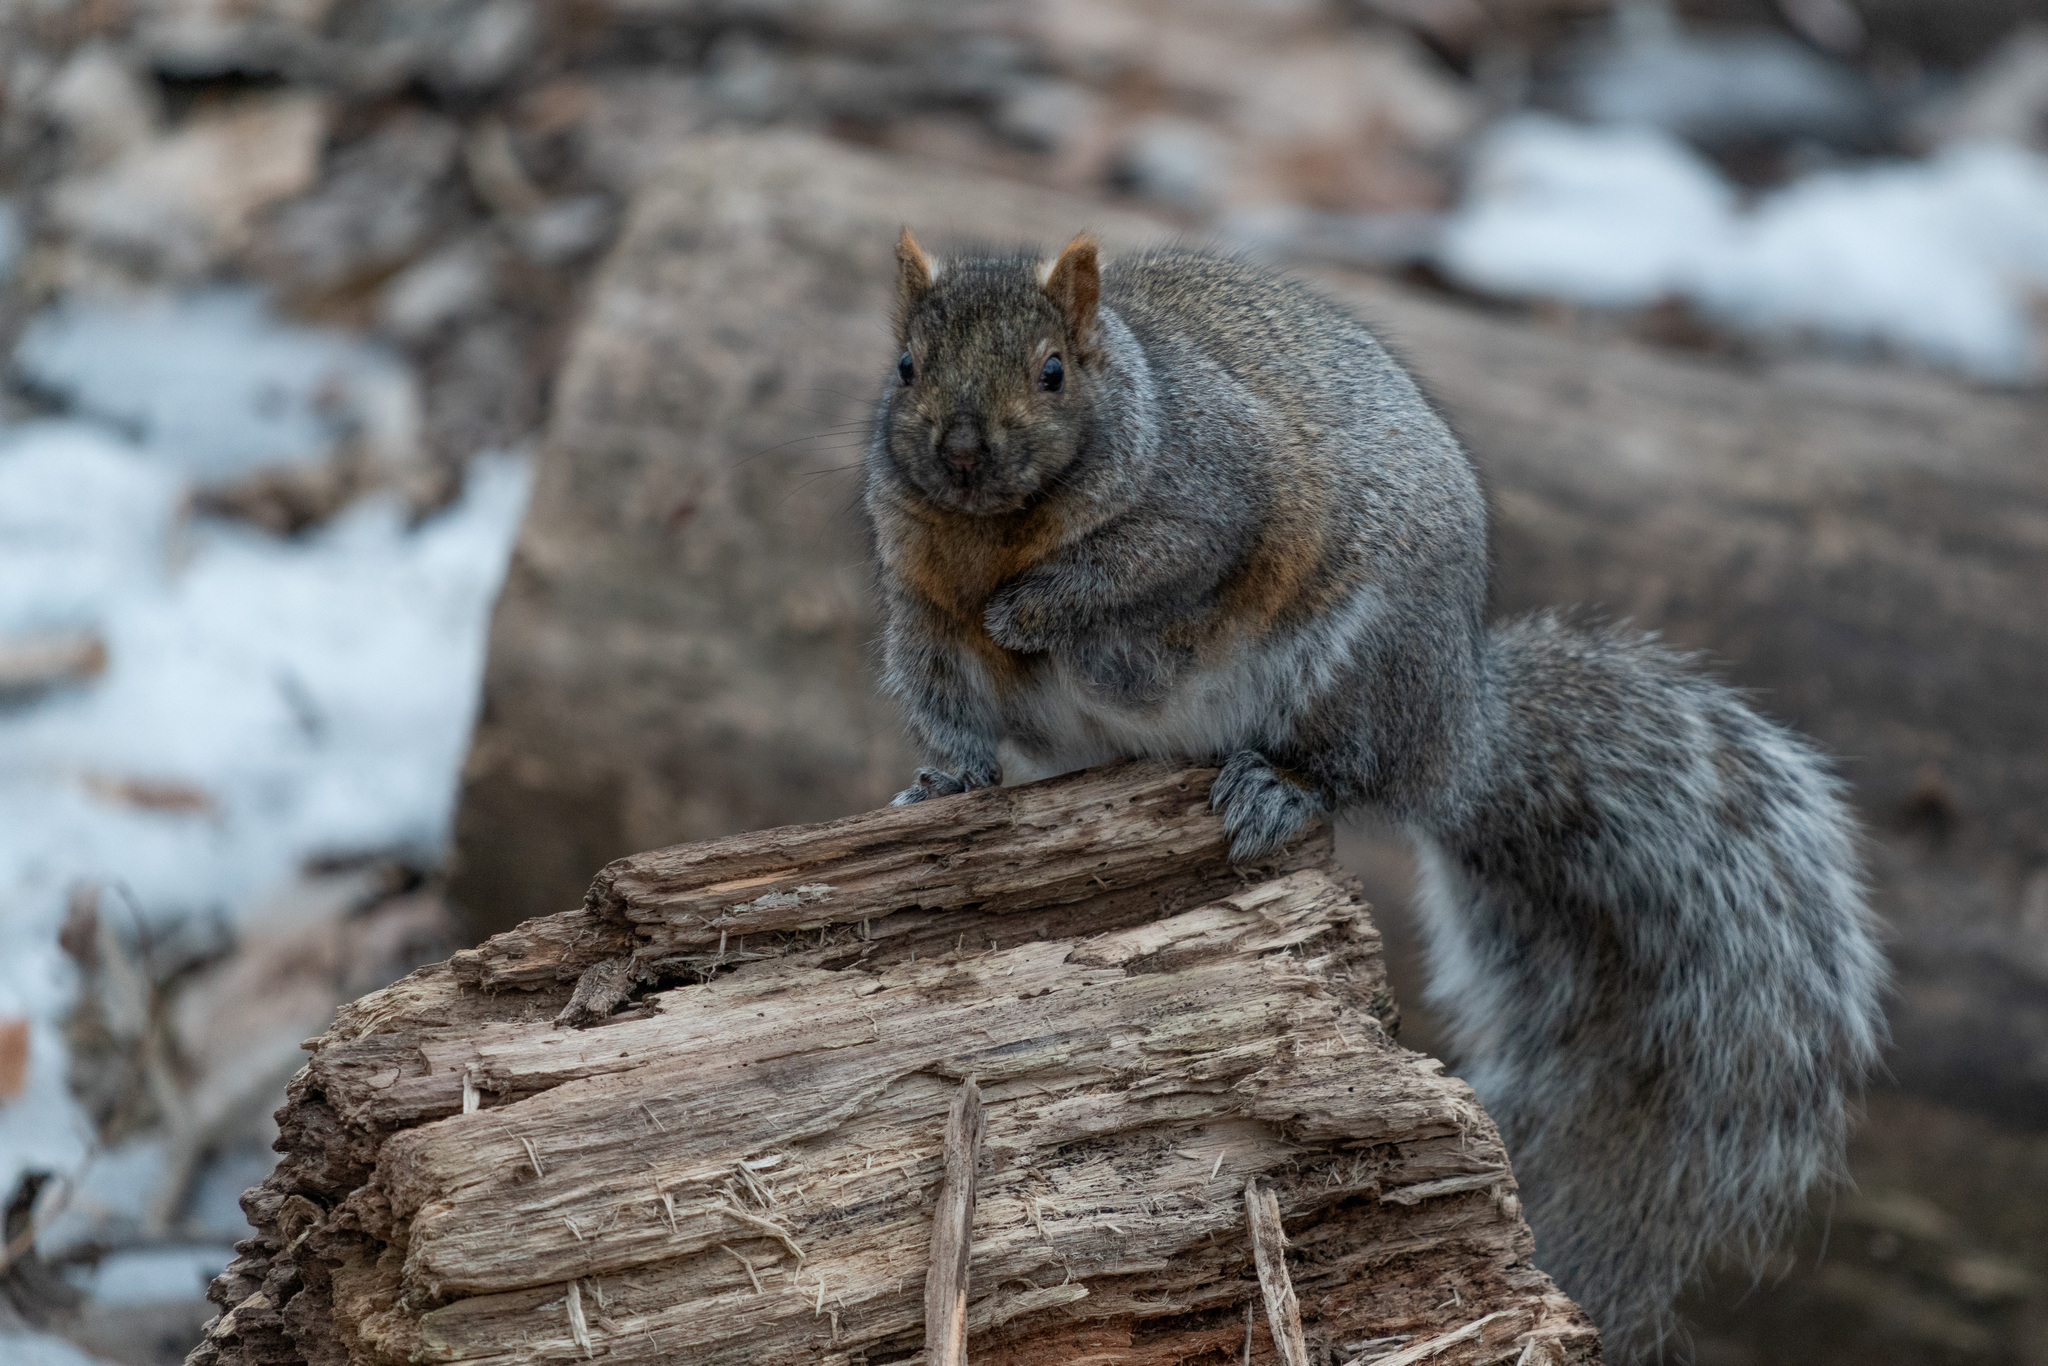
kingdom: Animalia
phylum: Chordata
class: Mammalia
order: Rodentia
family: Sciuridae
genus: Sciurus
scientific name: Sciurus carolinensis
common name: Eastern gray squirrel
